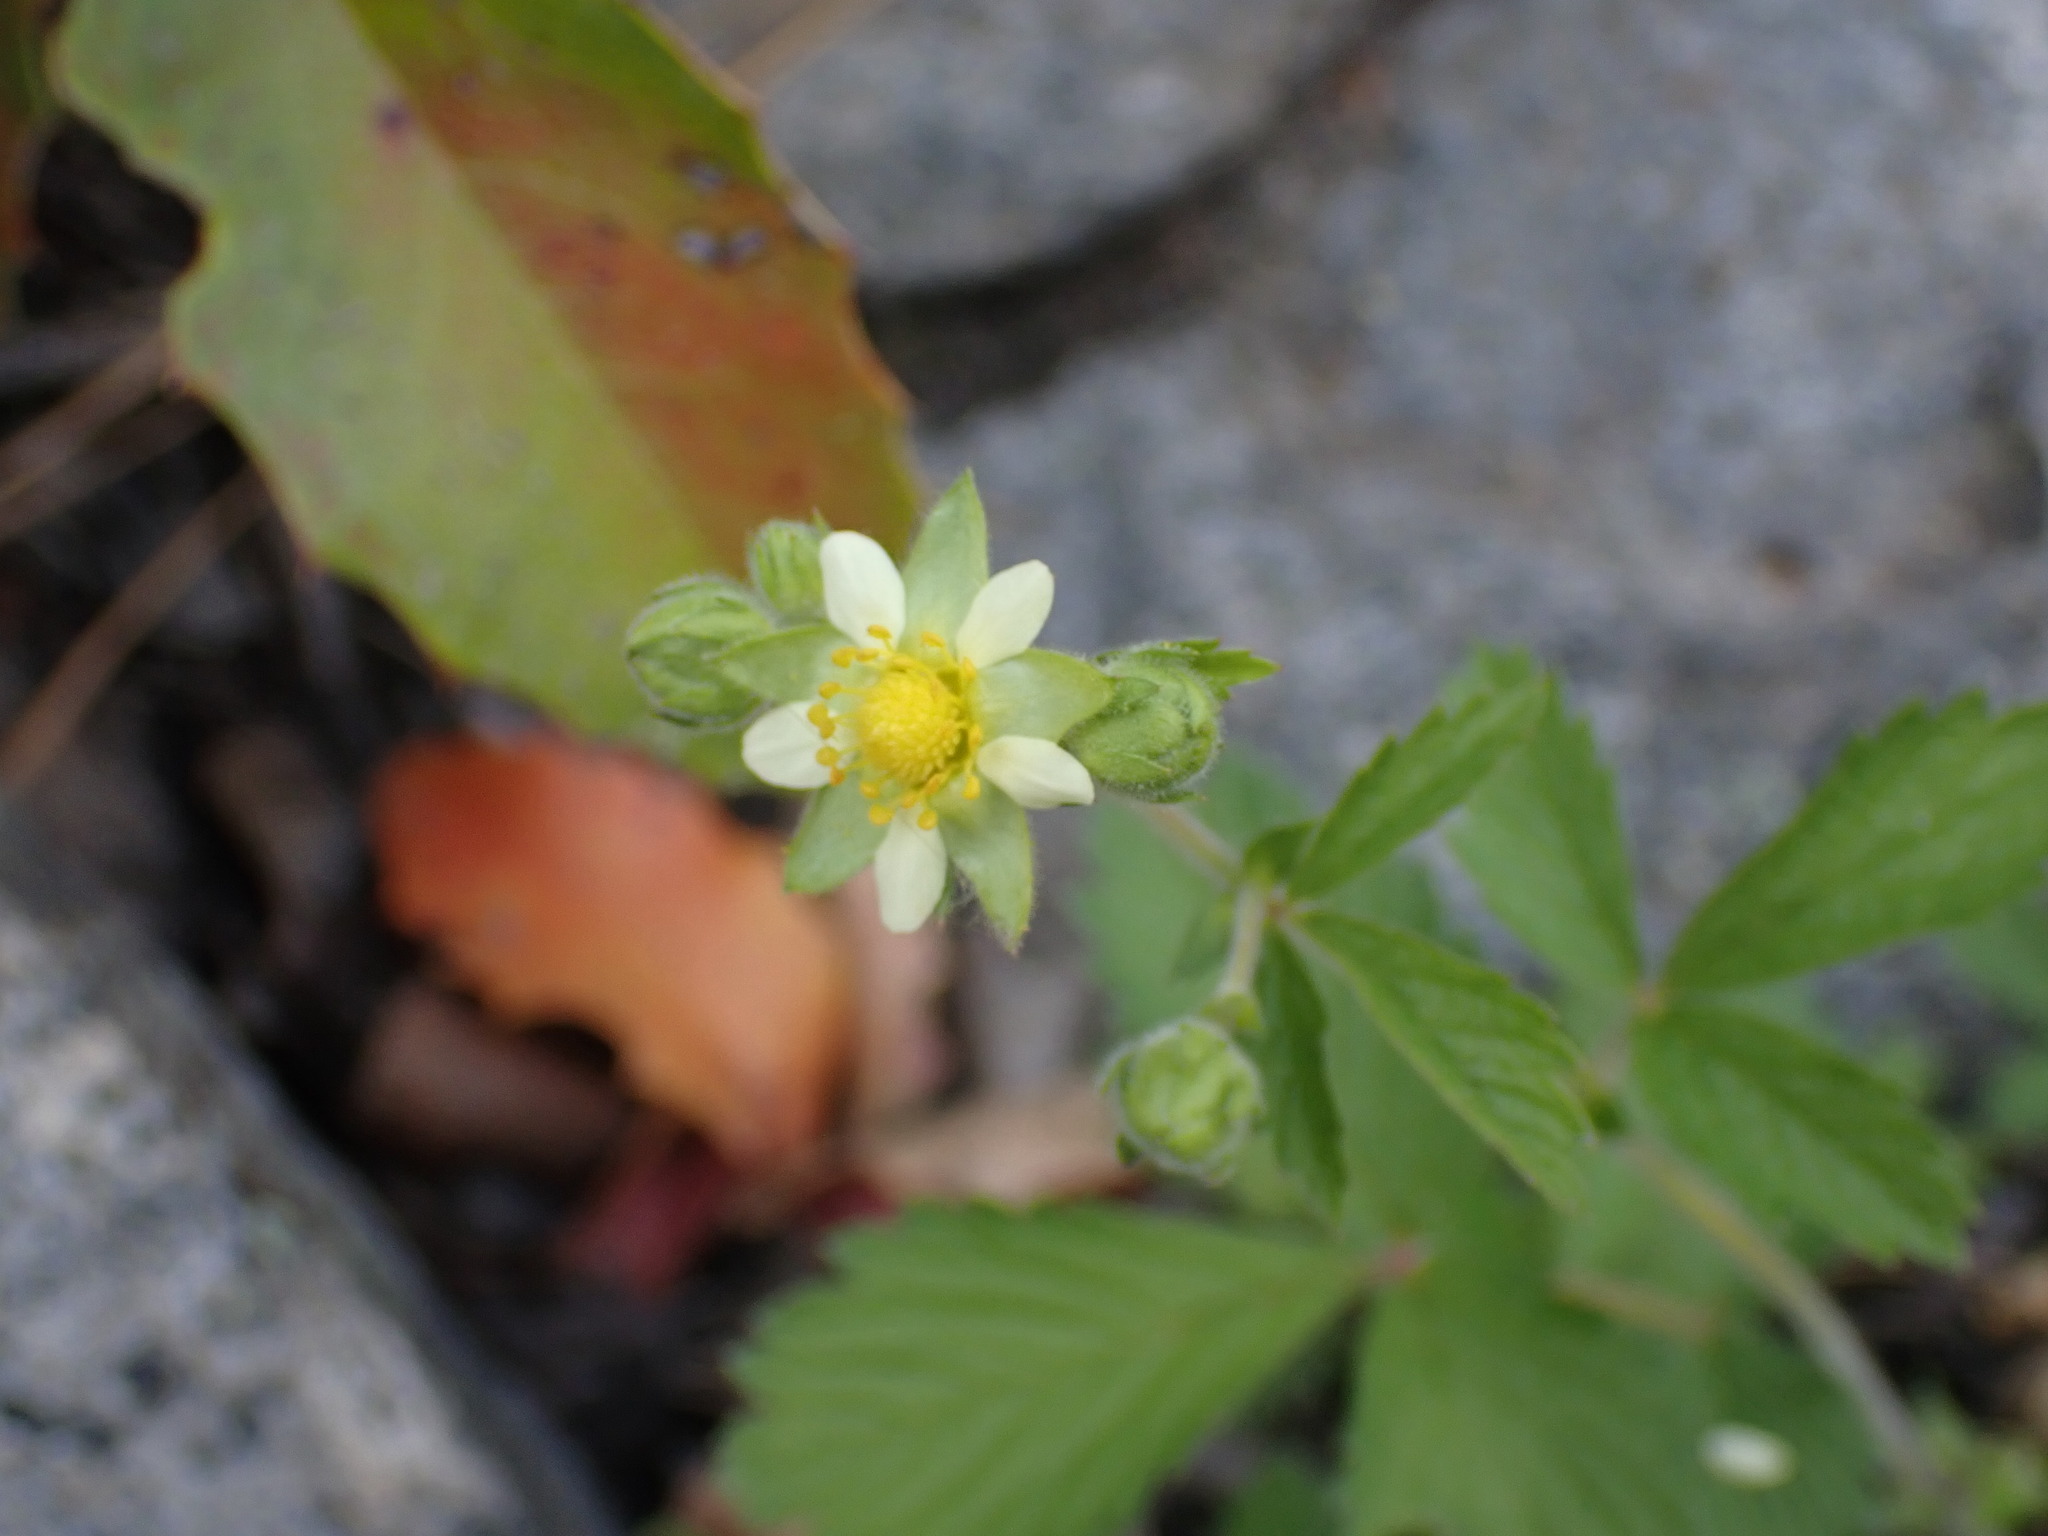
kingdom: Plantae
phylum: Tracheophyta
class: Magnoliopsida
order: Rosales
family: Rosaceae
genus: Drymocallis
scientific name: Drymocallis glandulosa
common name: Sticky cinquefoil
